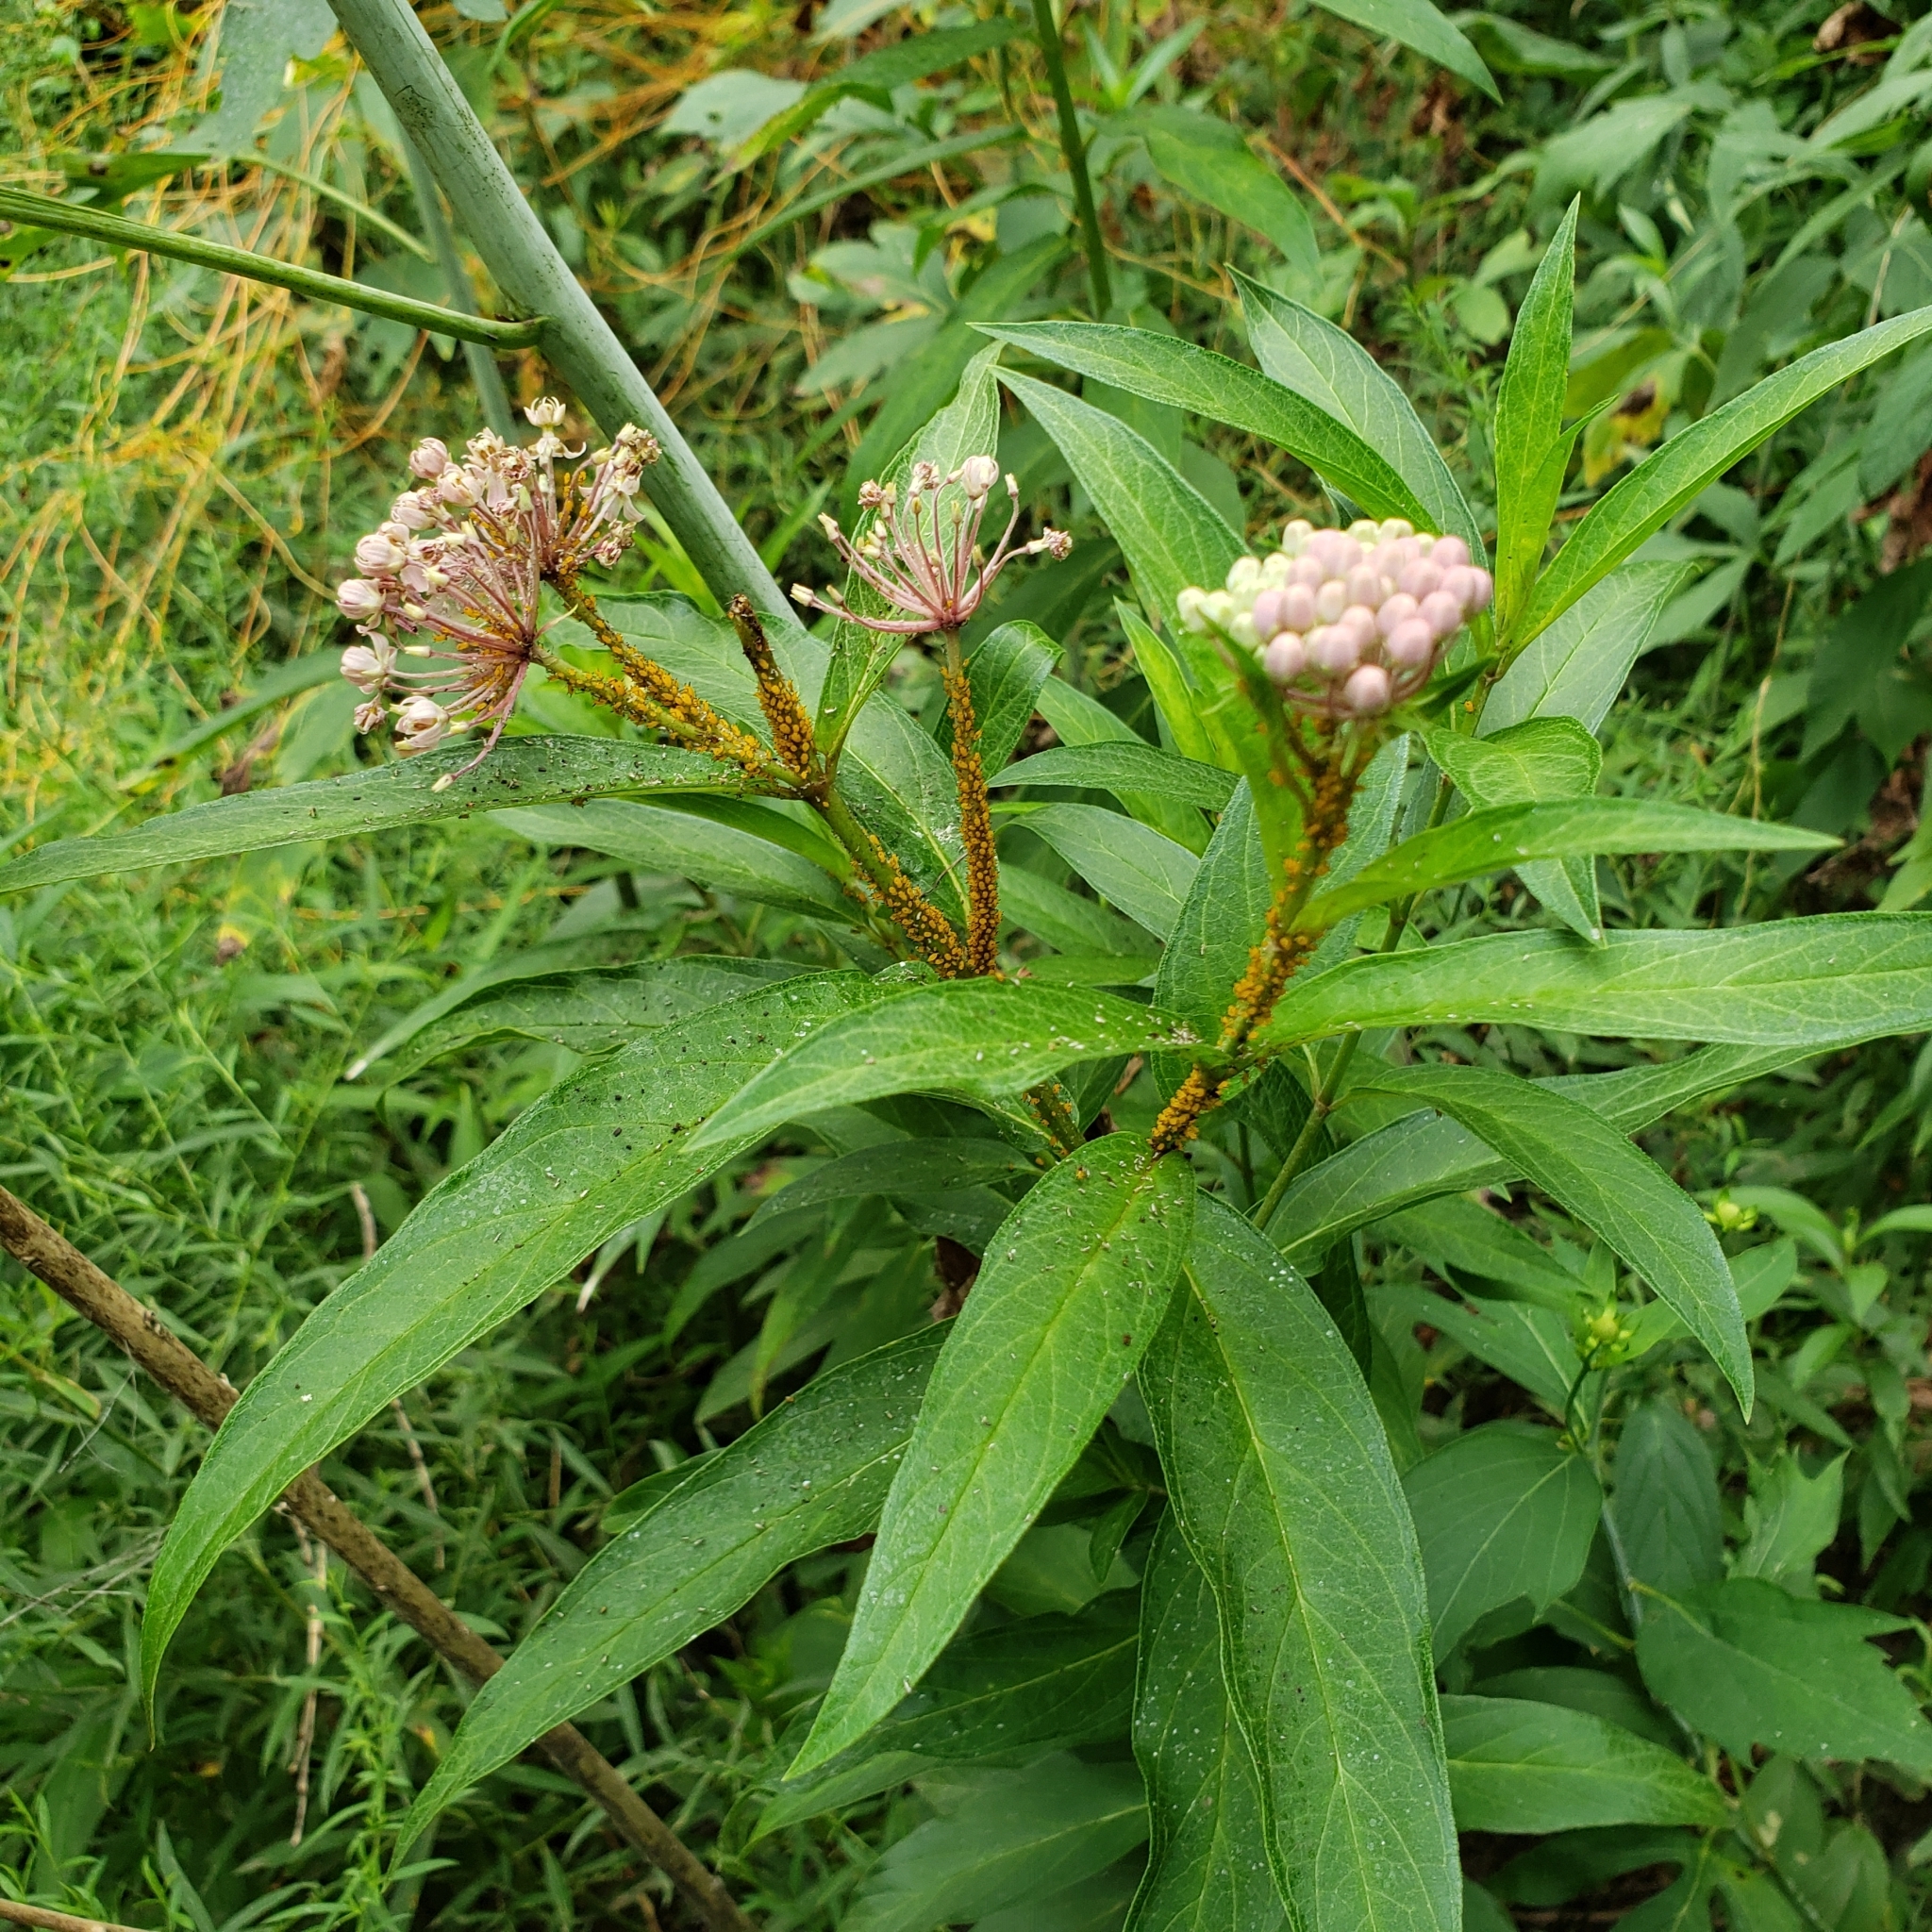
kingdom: Plantae
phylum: Tracheophyta
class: Magnoliopsida
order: Gentianales
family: Apocynaceae
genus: Asclepias
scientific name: Asclepias incarnata
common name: Swamp milkweed
